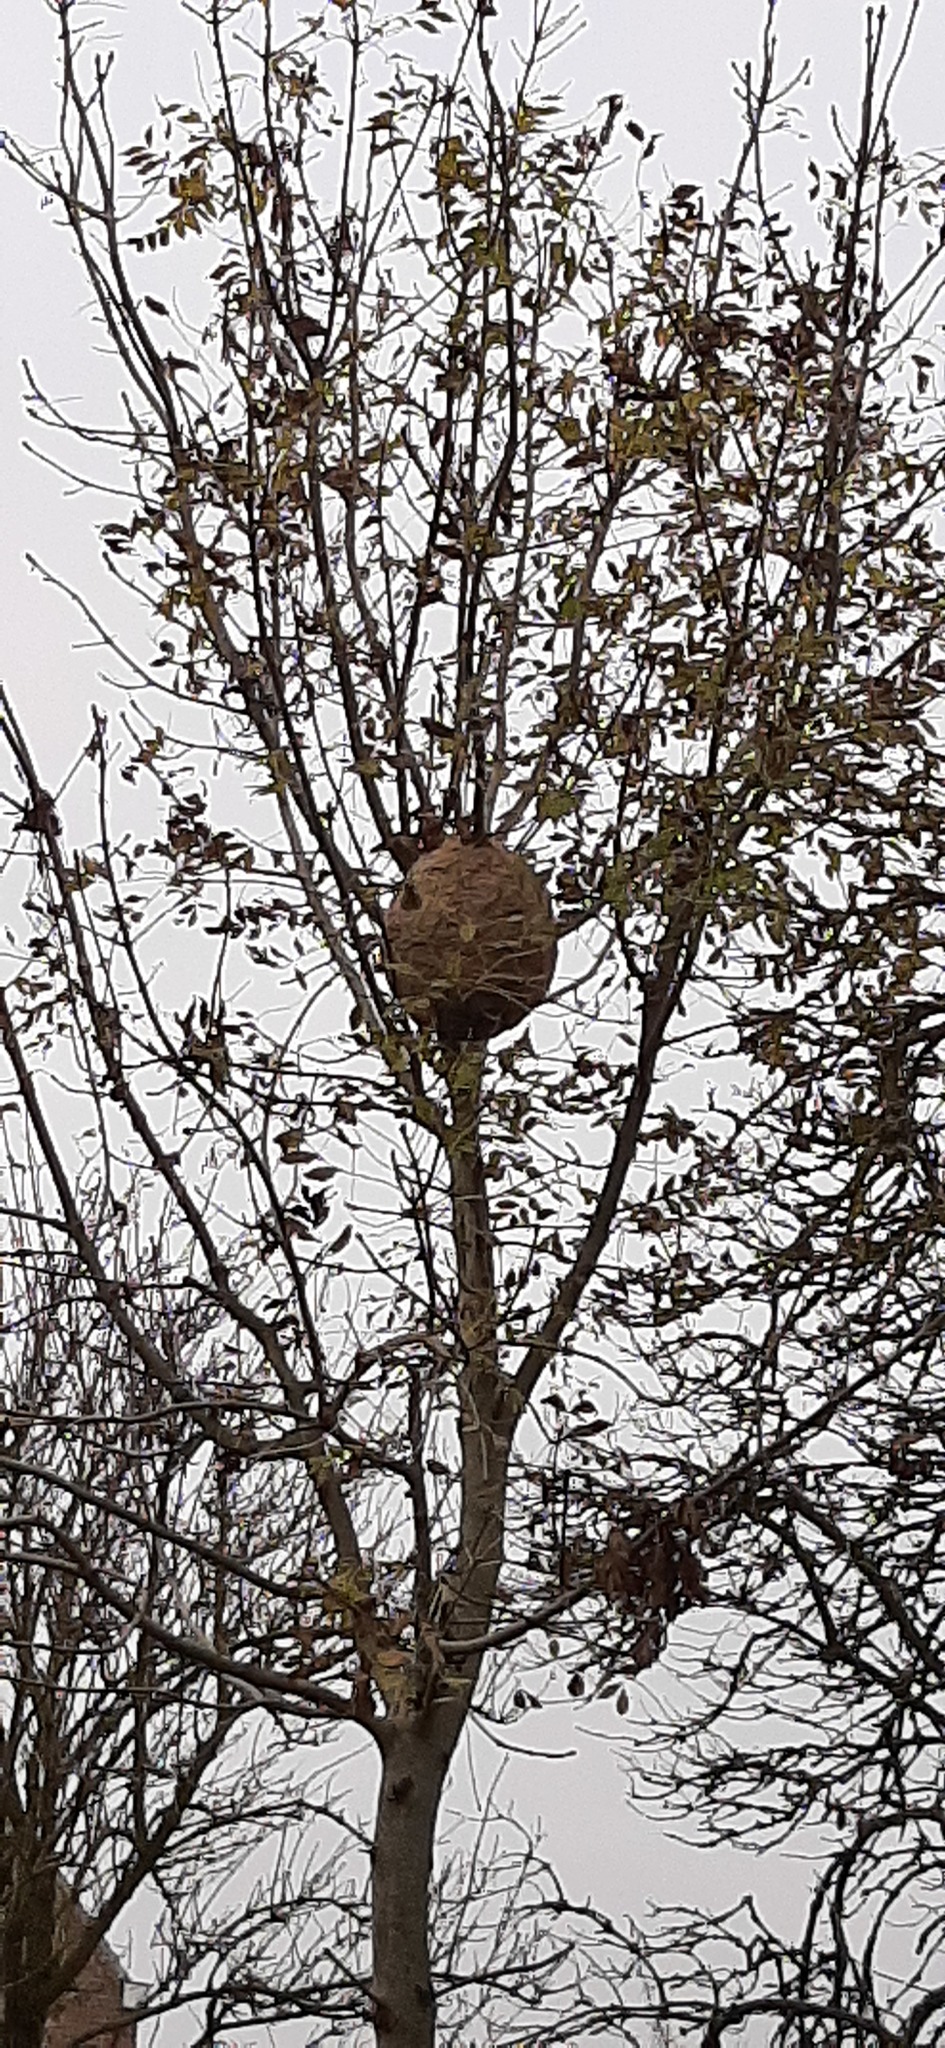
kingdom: Animalia
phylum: Arthropoda
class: Insecta
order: Hymenoptera
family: Vespidae
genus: Vespa
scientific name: Vespa velutina
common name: Asian hornet
